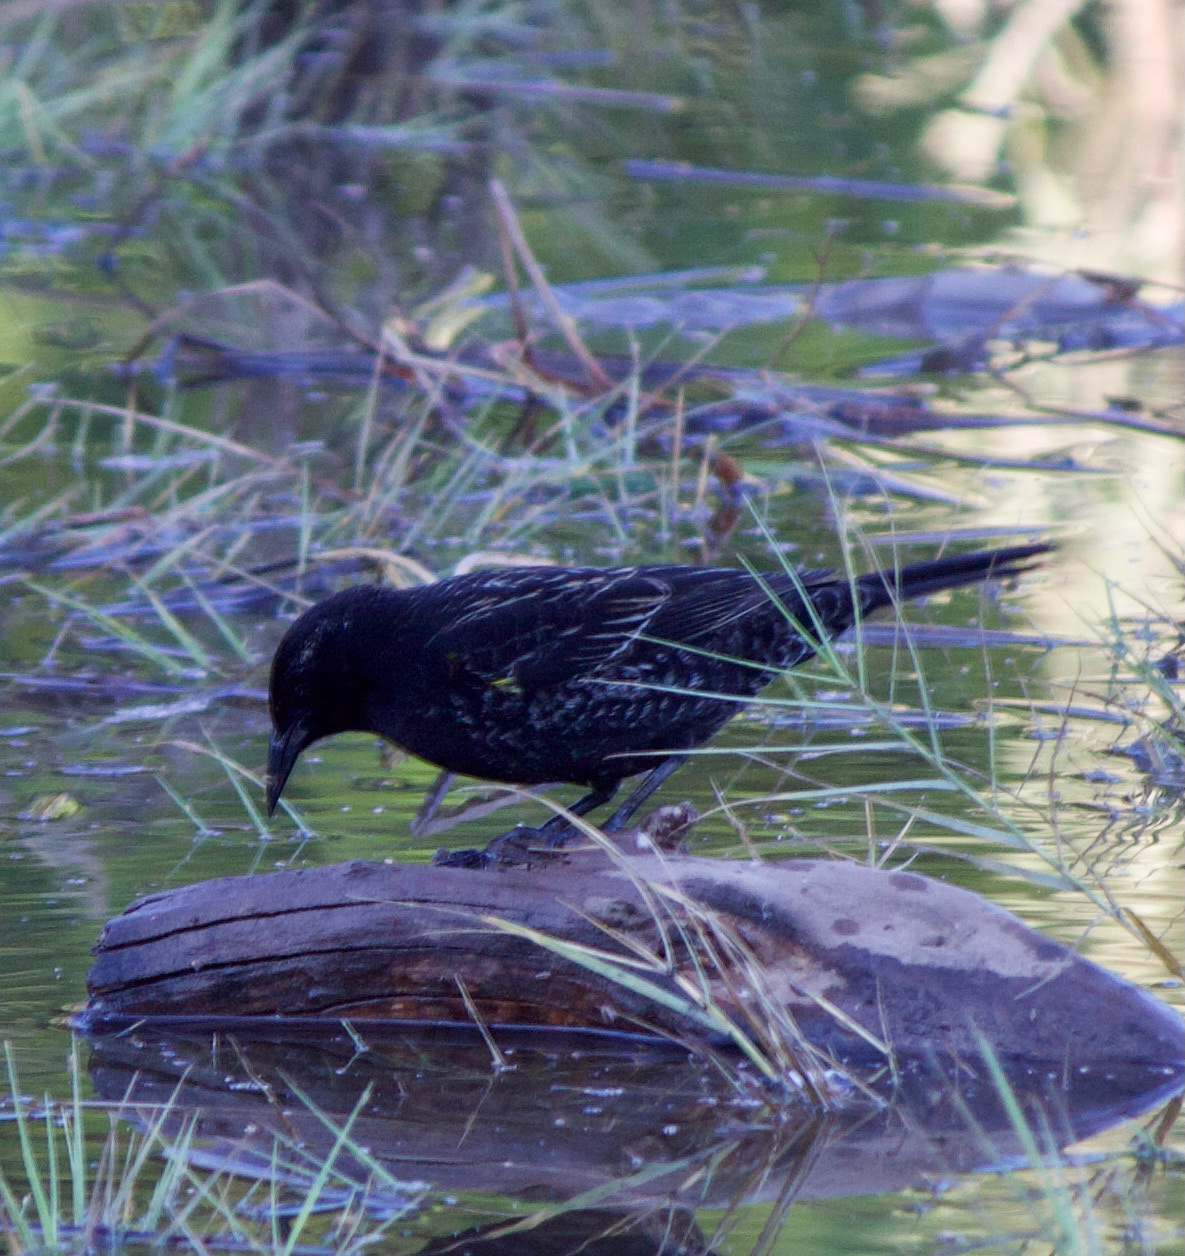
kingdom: Animalia
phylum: Chordata
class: Aves
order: Passeriformes
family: Icteridae
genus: Agelasticus
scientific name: Agelasticus thilius
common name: Yellow-winged blackbird
